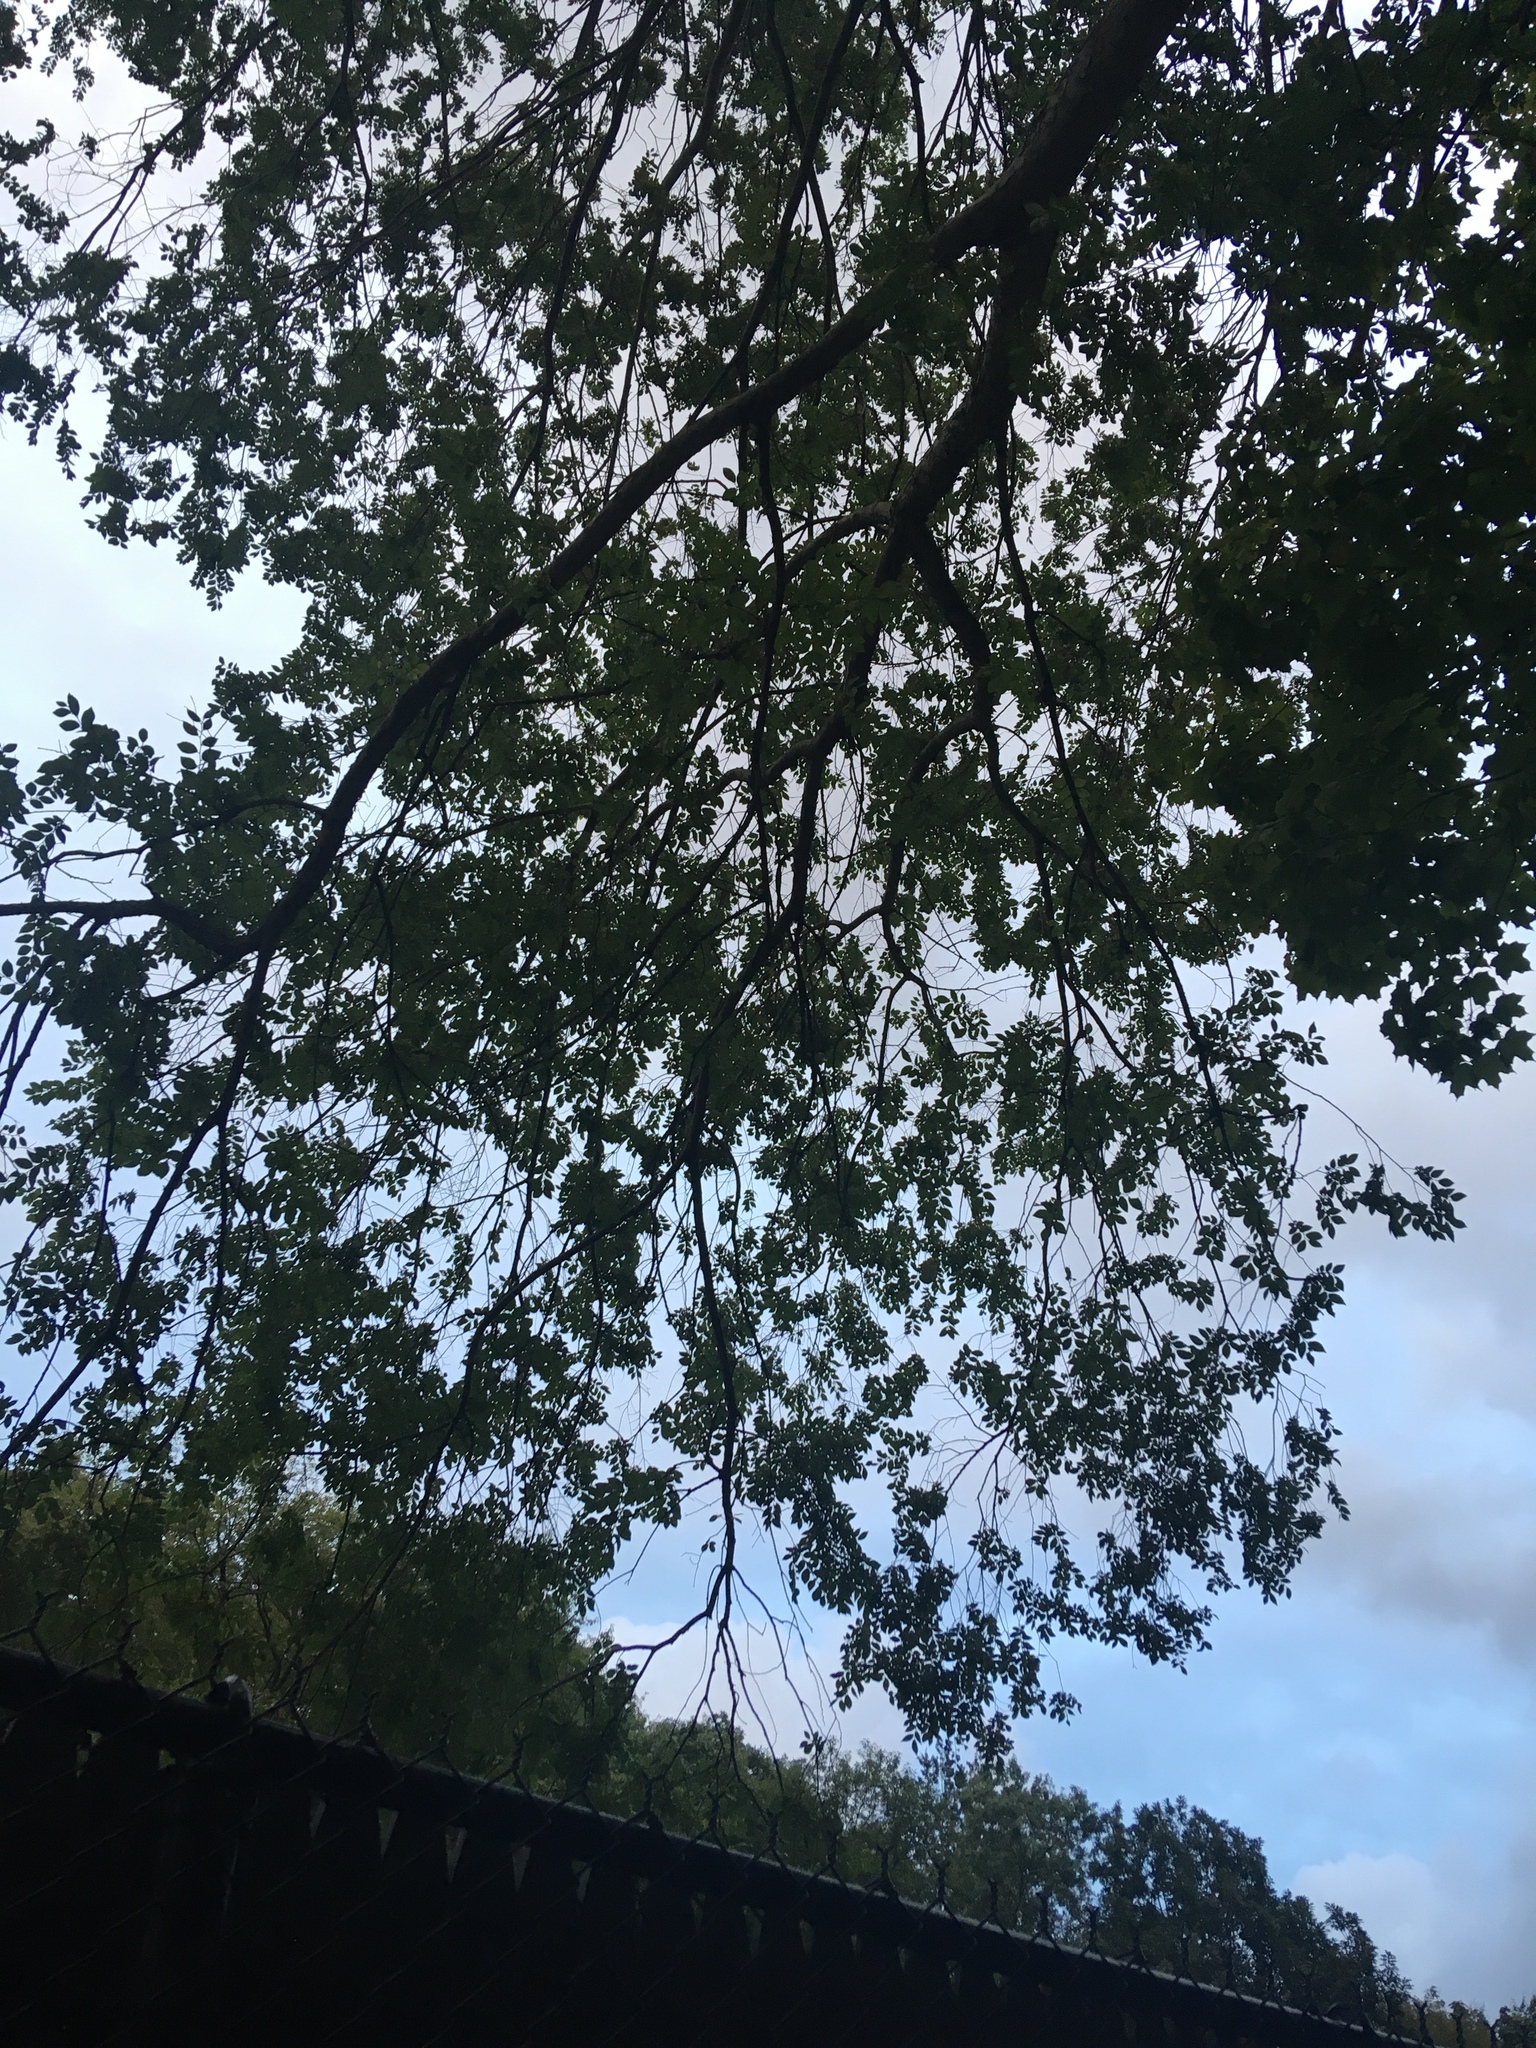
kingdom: Plantae
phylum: Tracheophyta
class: Magnoliopsida
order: Rosales
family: Ulmaceae
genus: Ulmus
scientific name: Ulmus parvifolia
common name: Chinese elm
